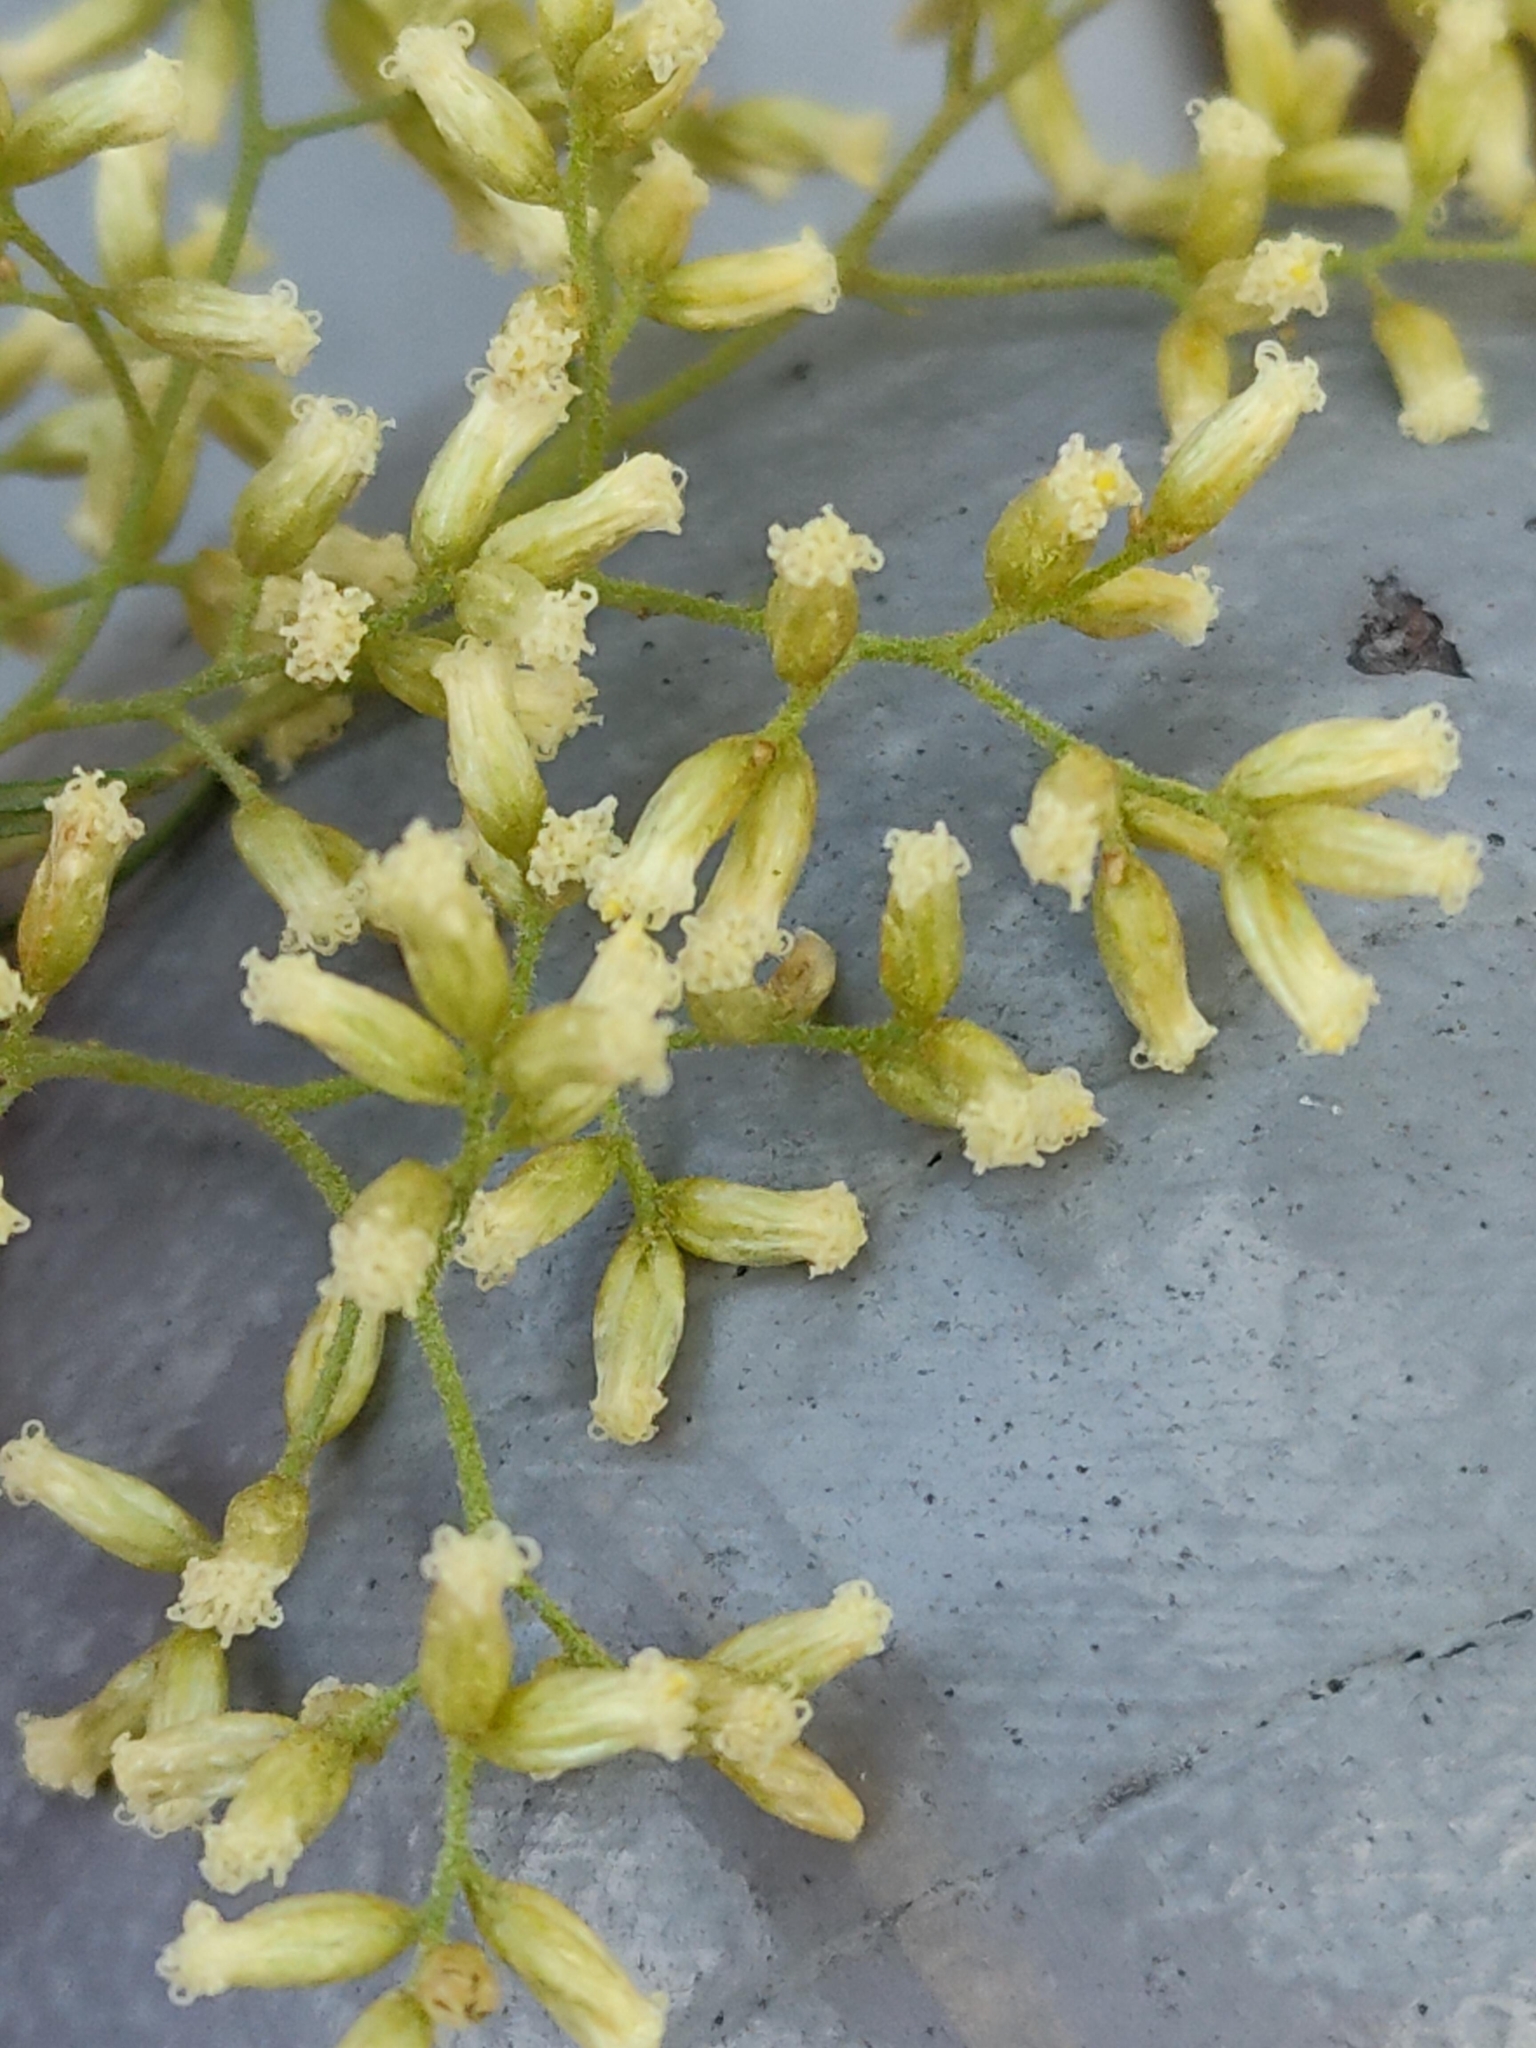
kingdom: Plantae
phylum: Tracheophyta
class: Magnoliopsida
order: Asterales
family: Asteraceae
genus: Cassinia
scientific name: Cassinia quinquefaria
